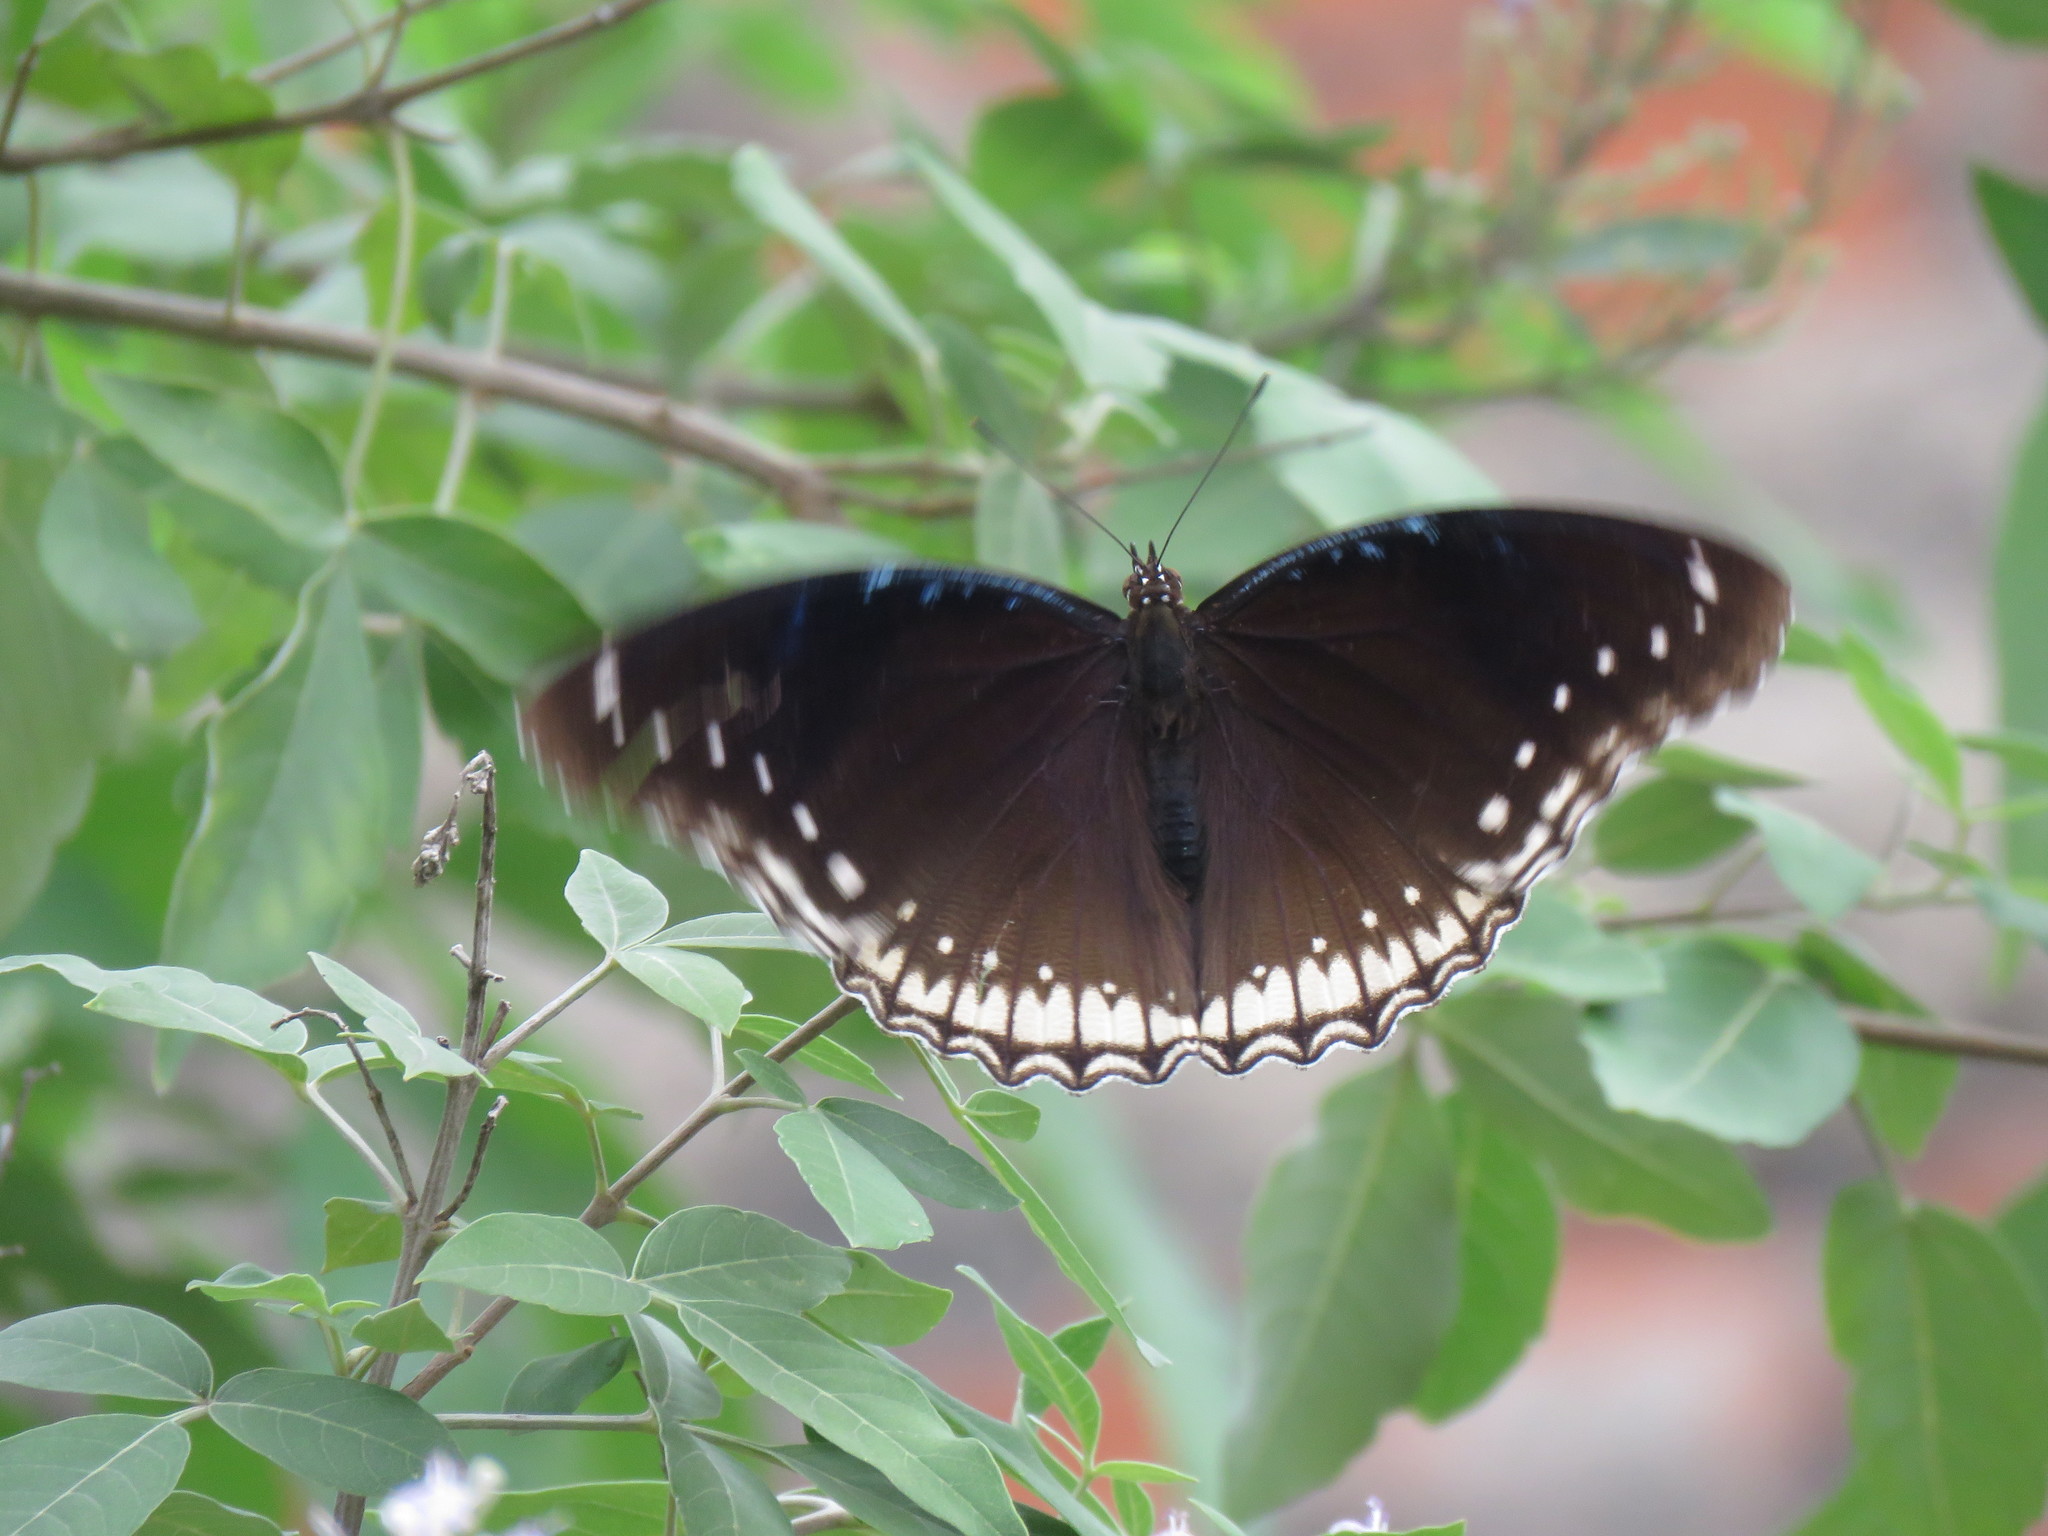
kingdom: Animalia
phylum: Arthropoda
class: Insecta
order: Lepidoptera
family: Nymphalidae
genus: Hypolimnas
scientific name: Hypolimnas bolina
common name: Great eggfly
